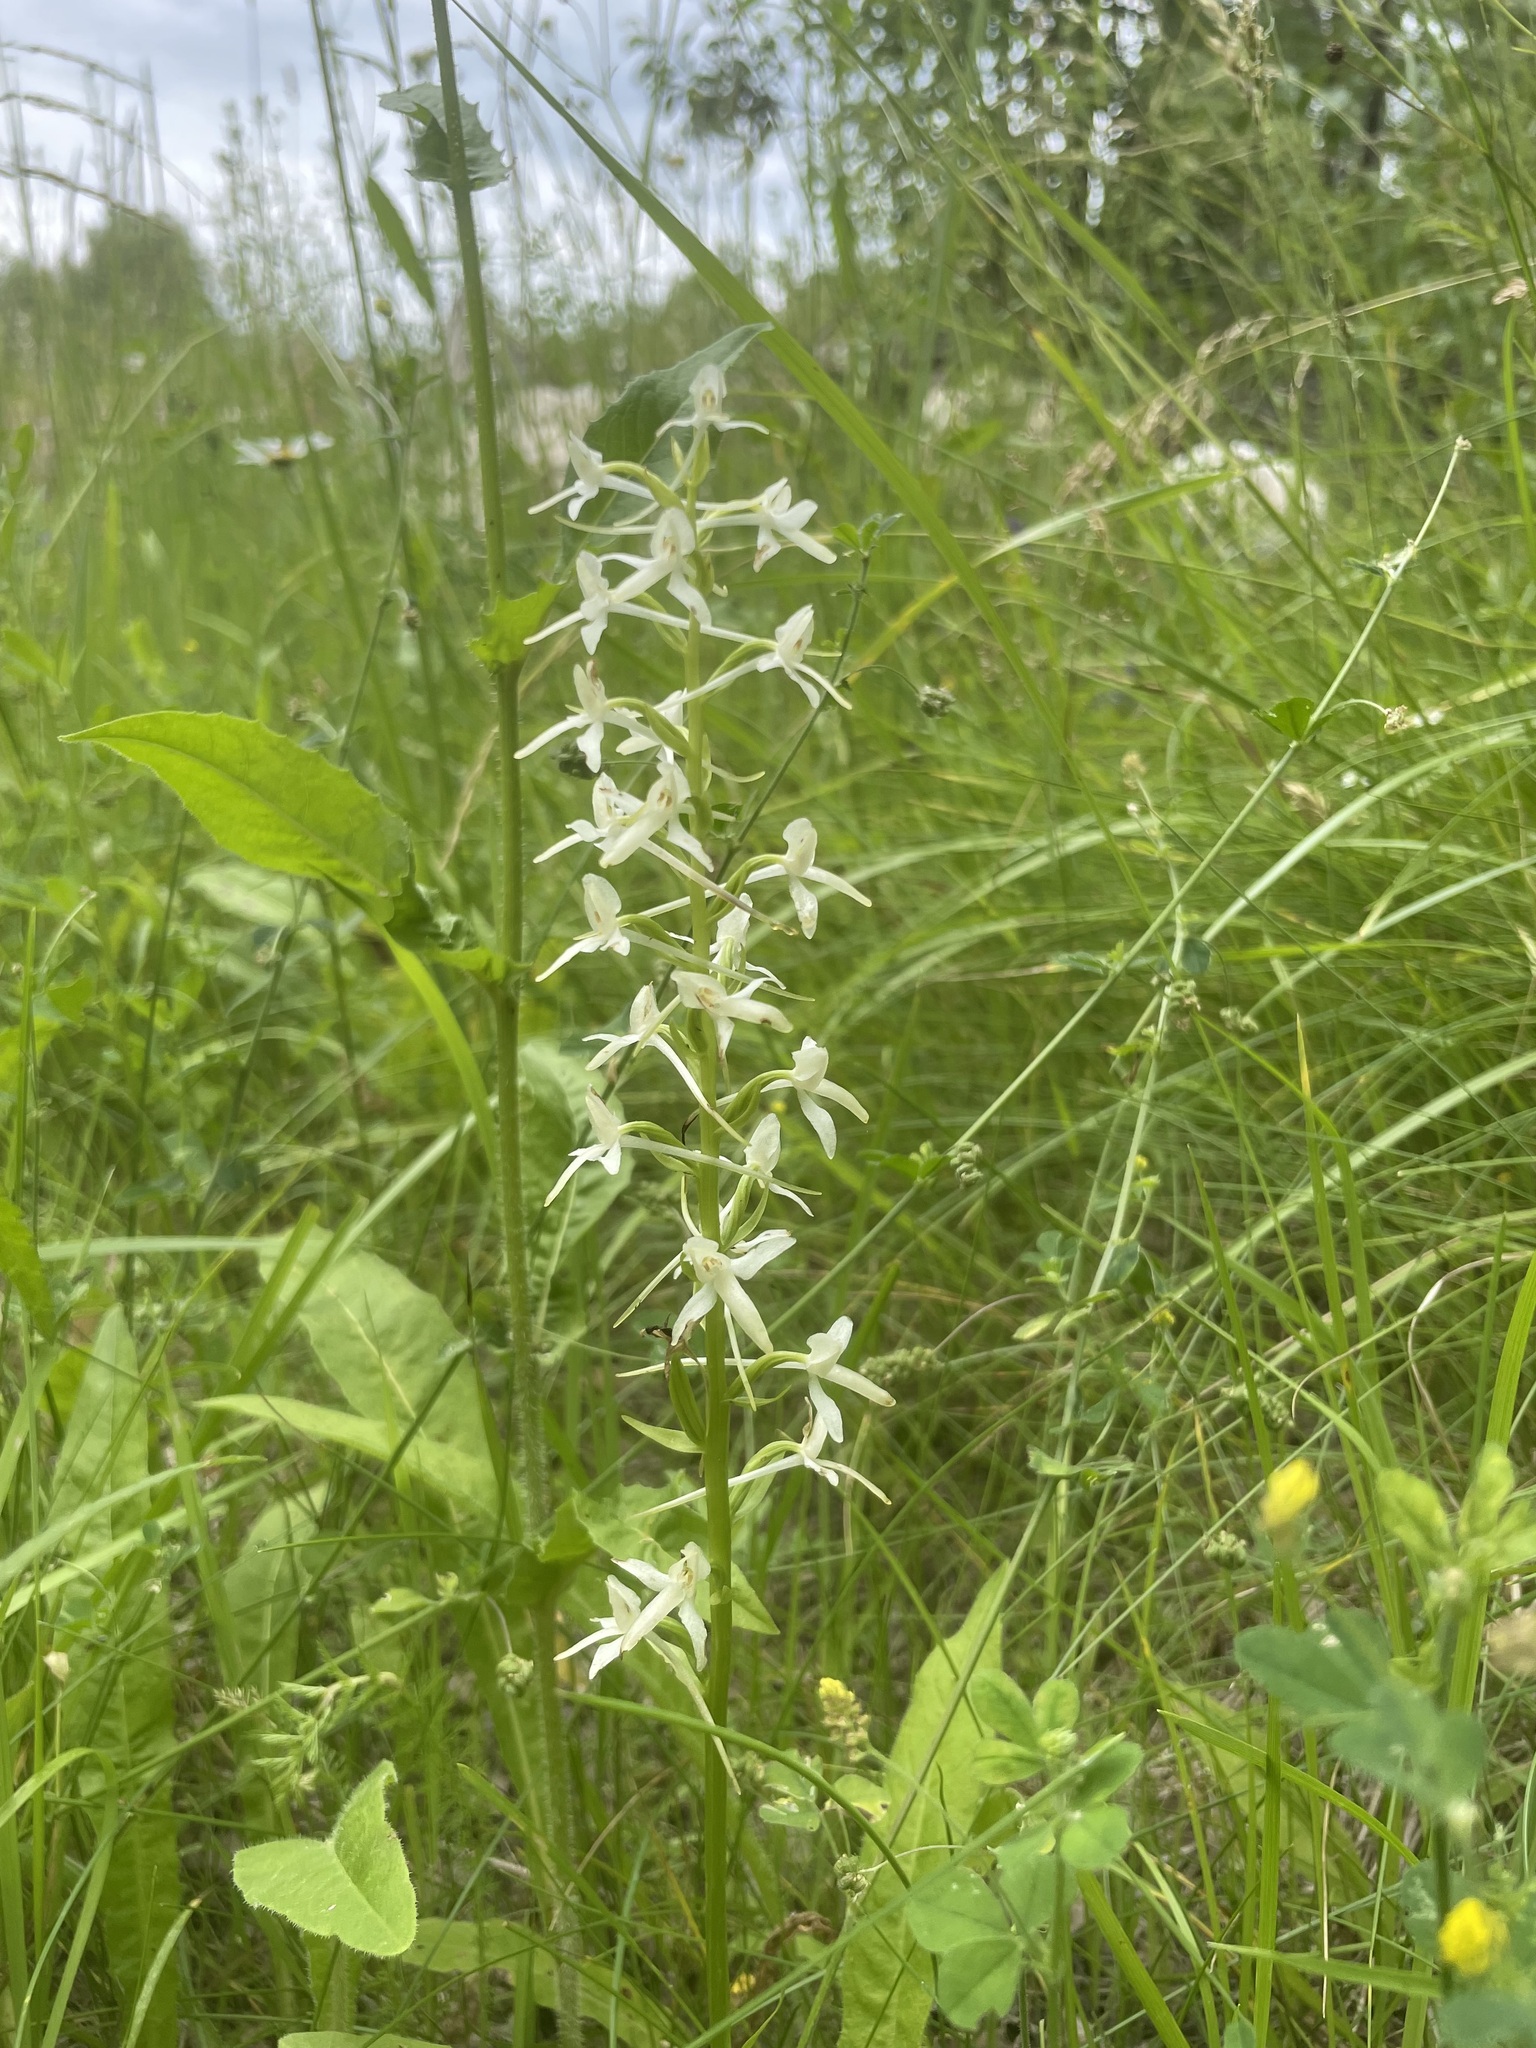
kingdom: Plantae
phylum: Tracheophyta
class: Liliopsida
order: Asparagales
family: Orchidaceae
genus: Platanthera
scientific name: Platanthera bifolia
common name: Lesser butterfly-orchid
